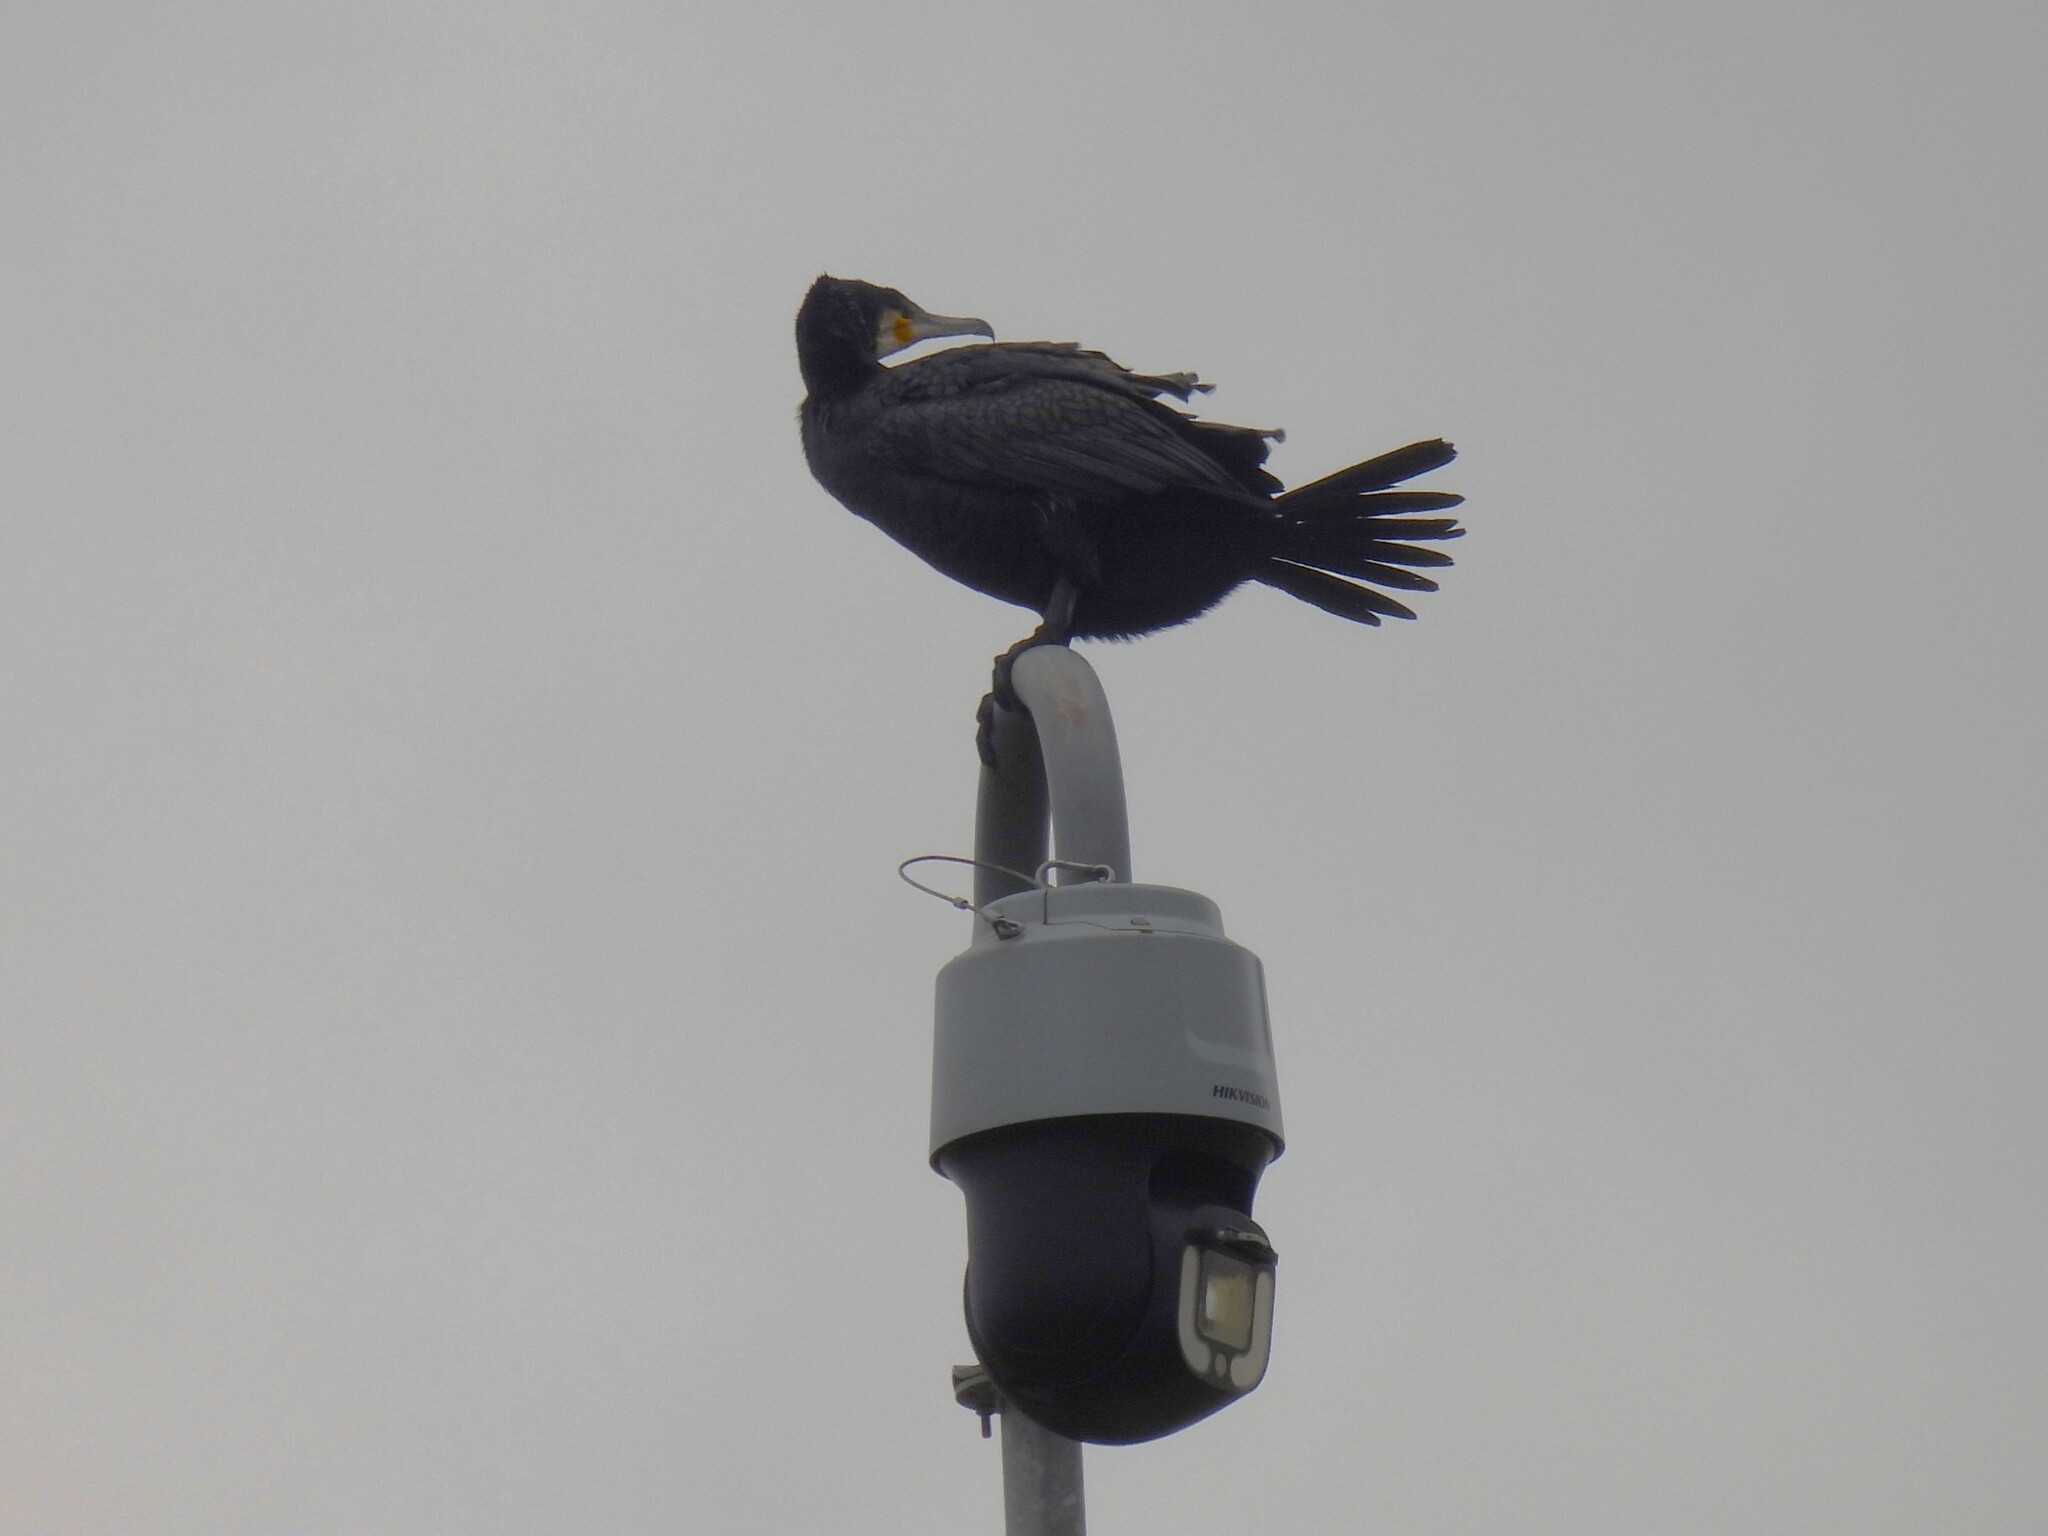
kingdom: Animalia
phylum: Chordata
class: Aves
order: Suliformes
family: Phalacrocoracidae
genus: Phalacrocorax
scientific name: Phalacrocorax carbo
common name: Great cormorant
